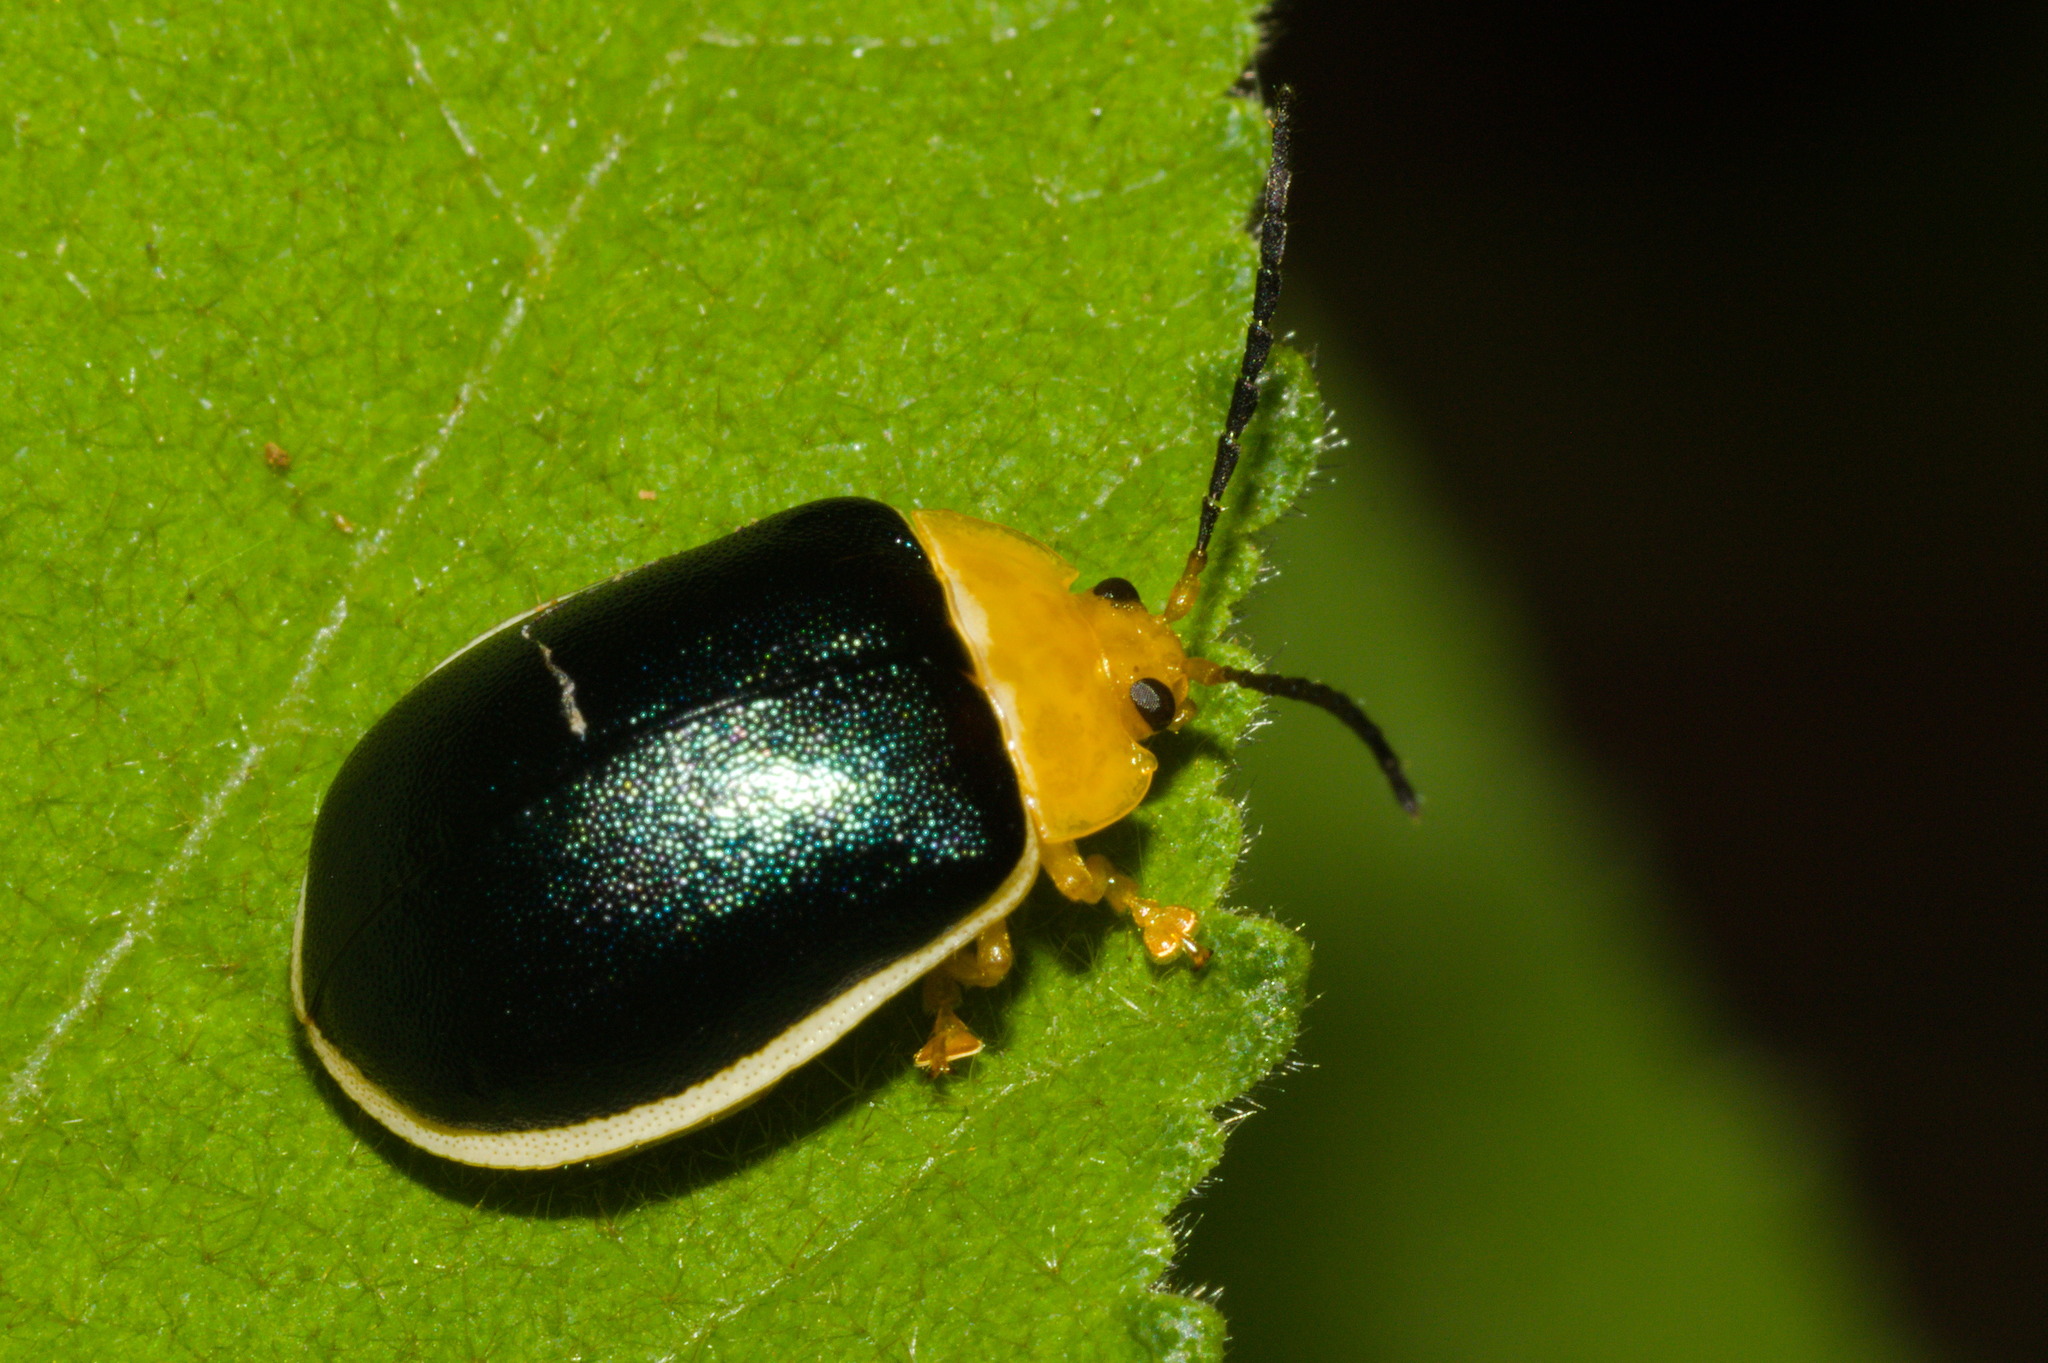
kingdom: Animalia
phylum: Arthropoda
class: Insecta
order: Coleoptera
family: Chrysomelidae
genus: Paranaita
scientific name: Paranaita
